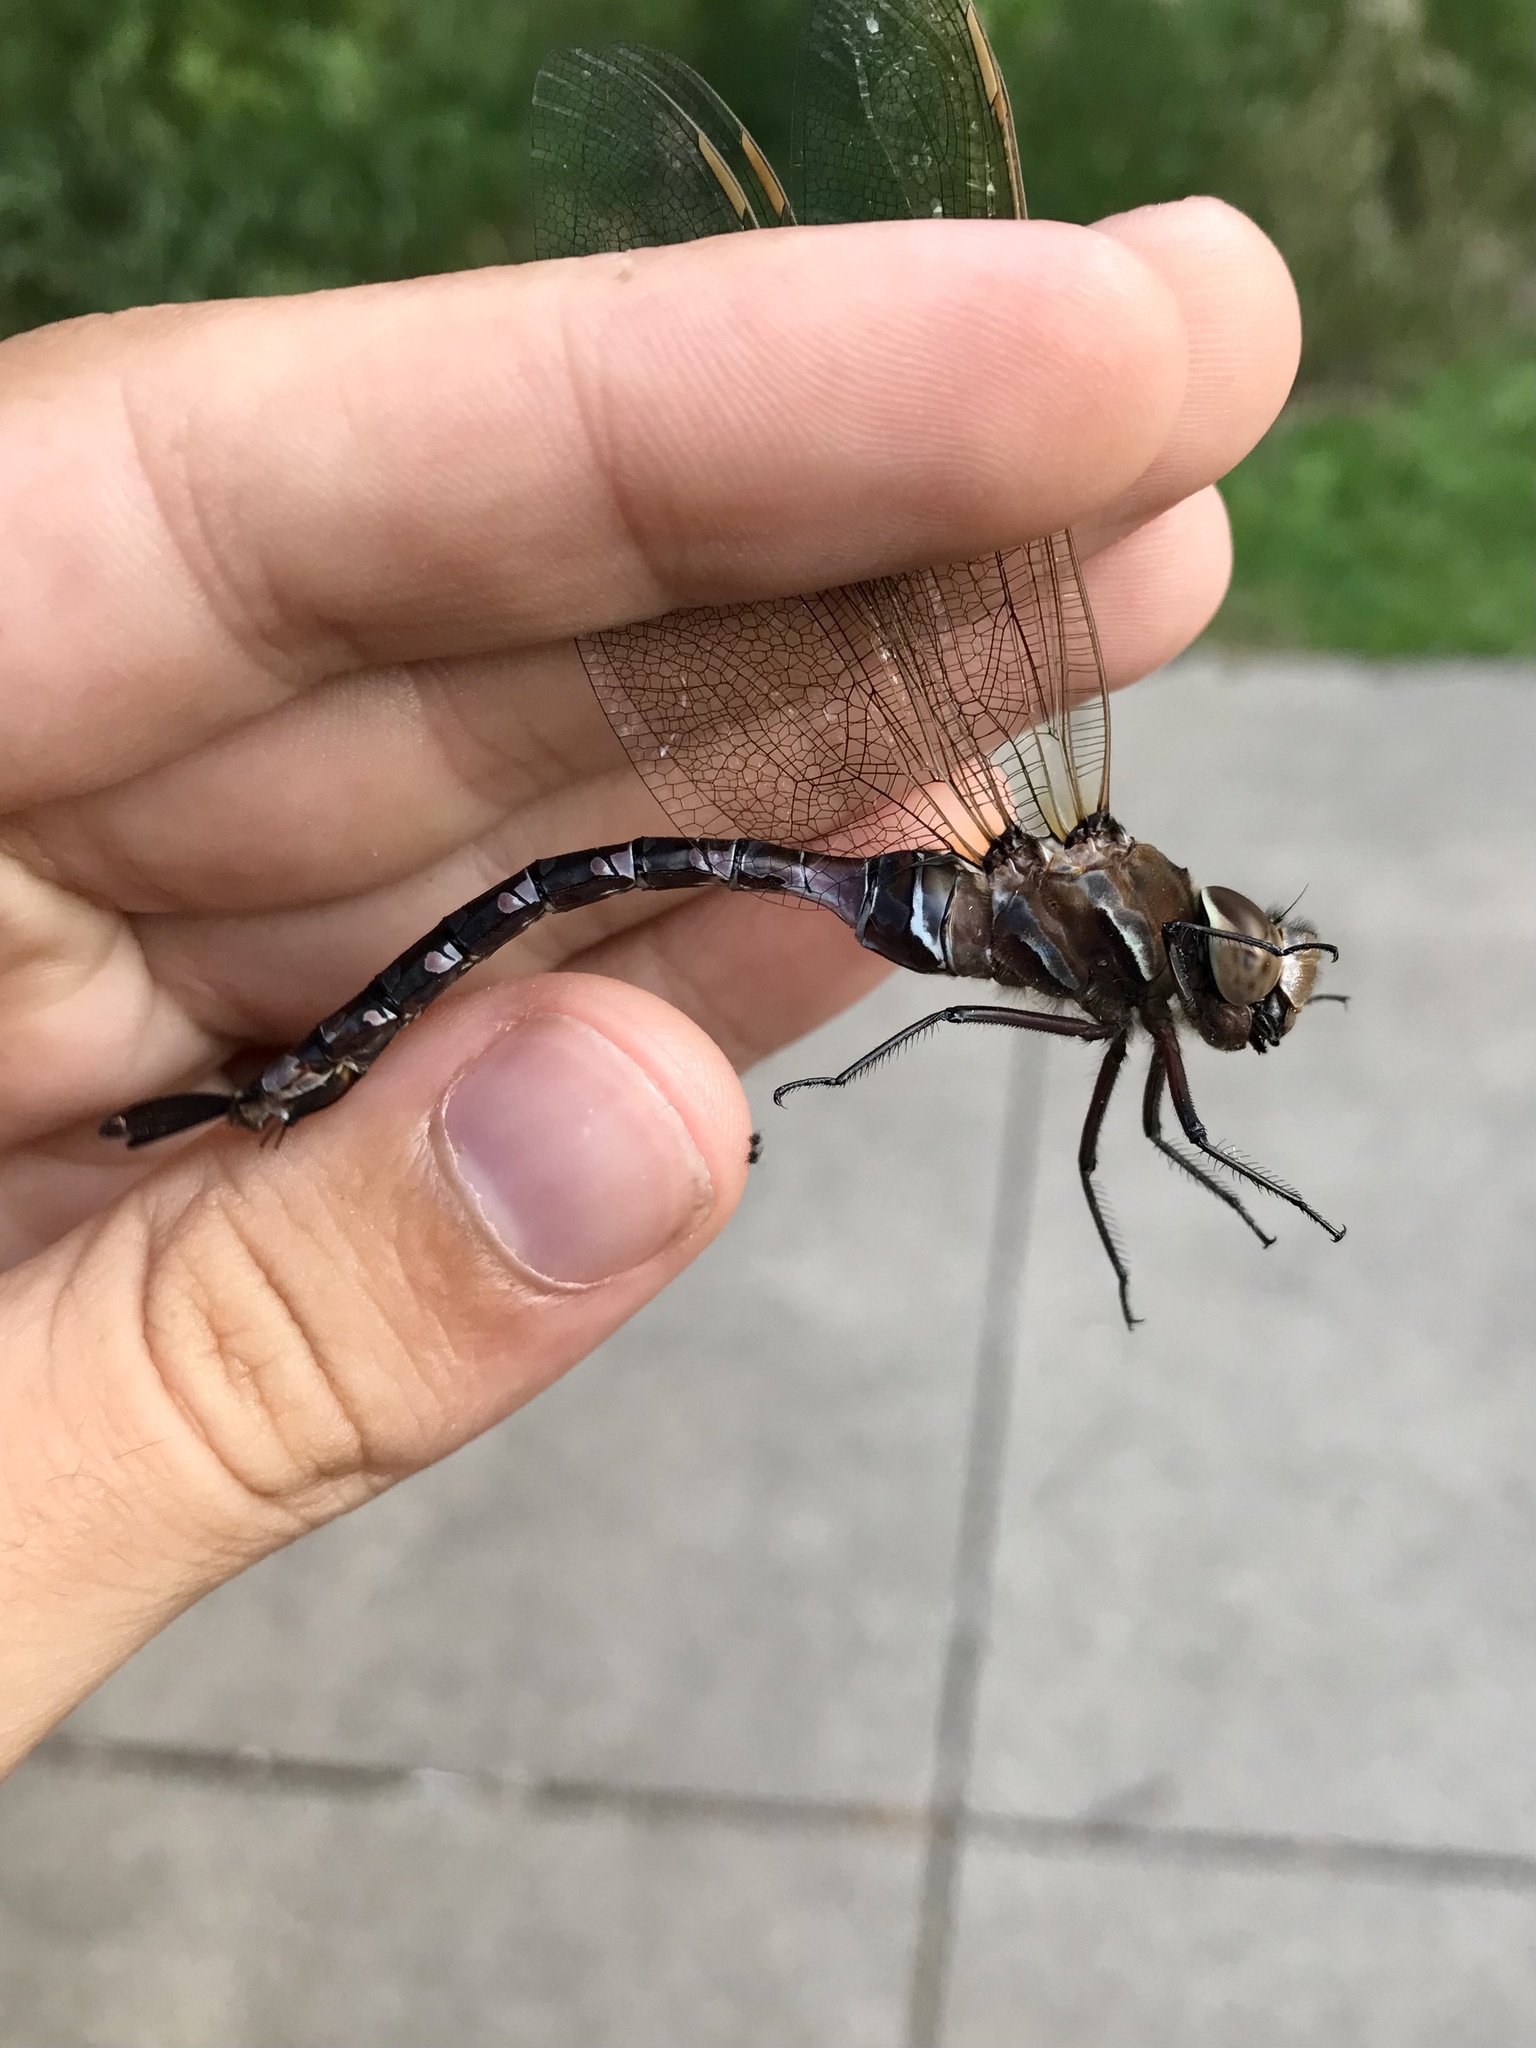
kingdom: Animalia
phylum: Arthropoda
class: Insecta
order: Odonata
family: Aeshnidae
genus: Aeshna
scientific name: Aeshna constricta
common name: Lance-tipped darner
